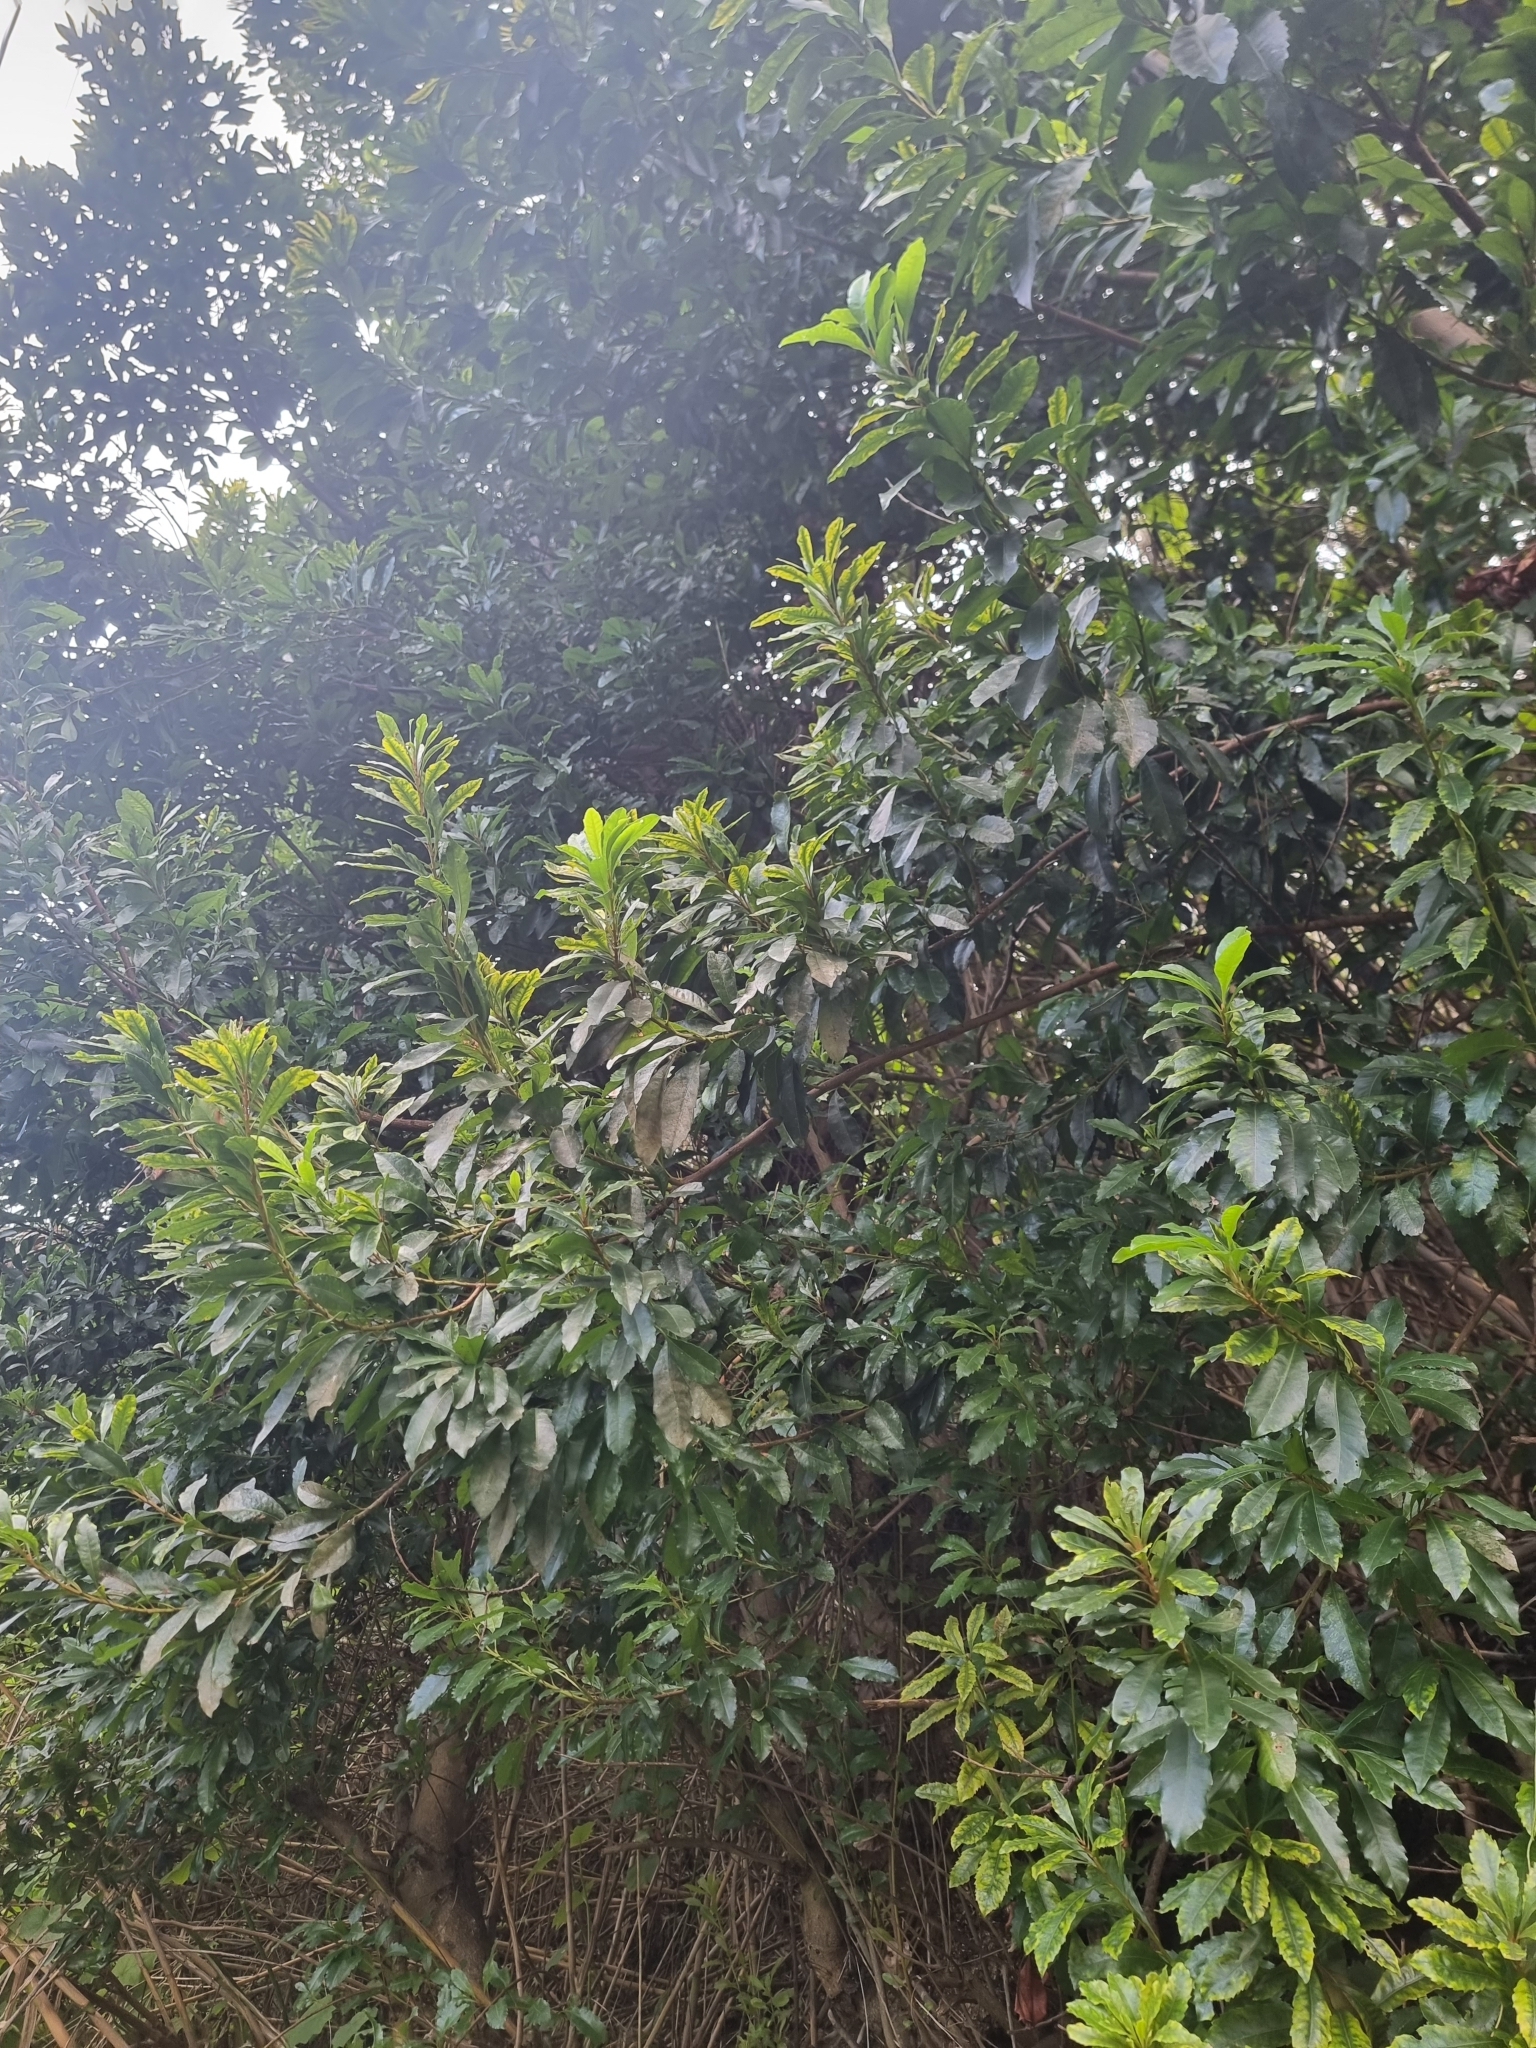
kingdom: Plantae
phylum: Tracheophyta
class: Magnoliopsida
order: Fagales
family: Myricaceae
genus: Morella
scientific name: Morella faya
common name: Firetree
